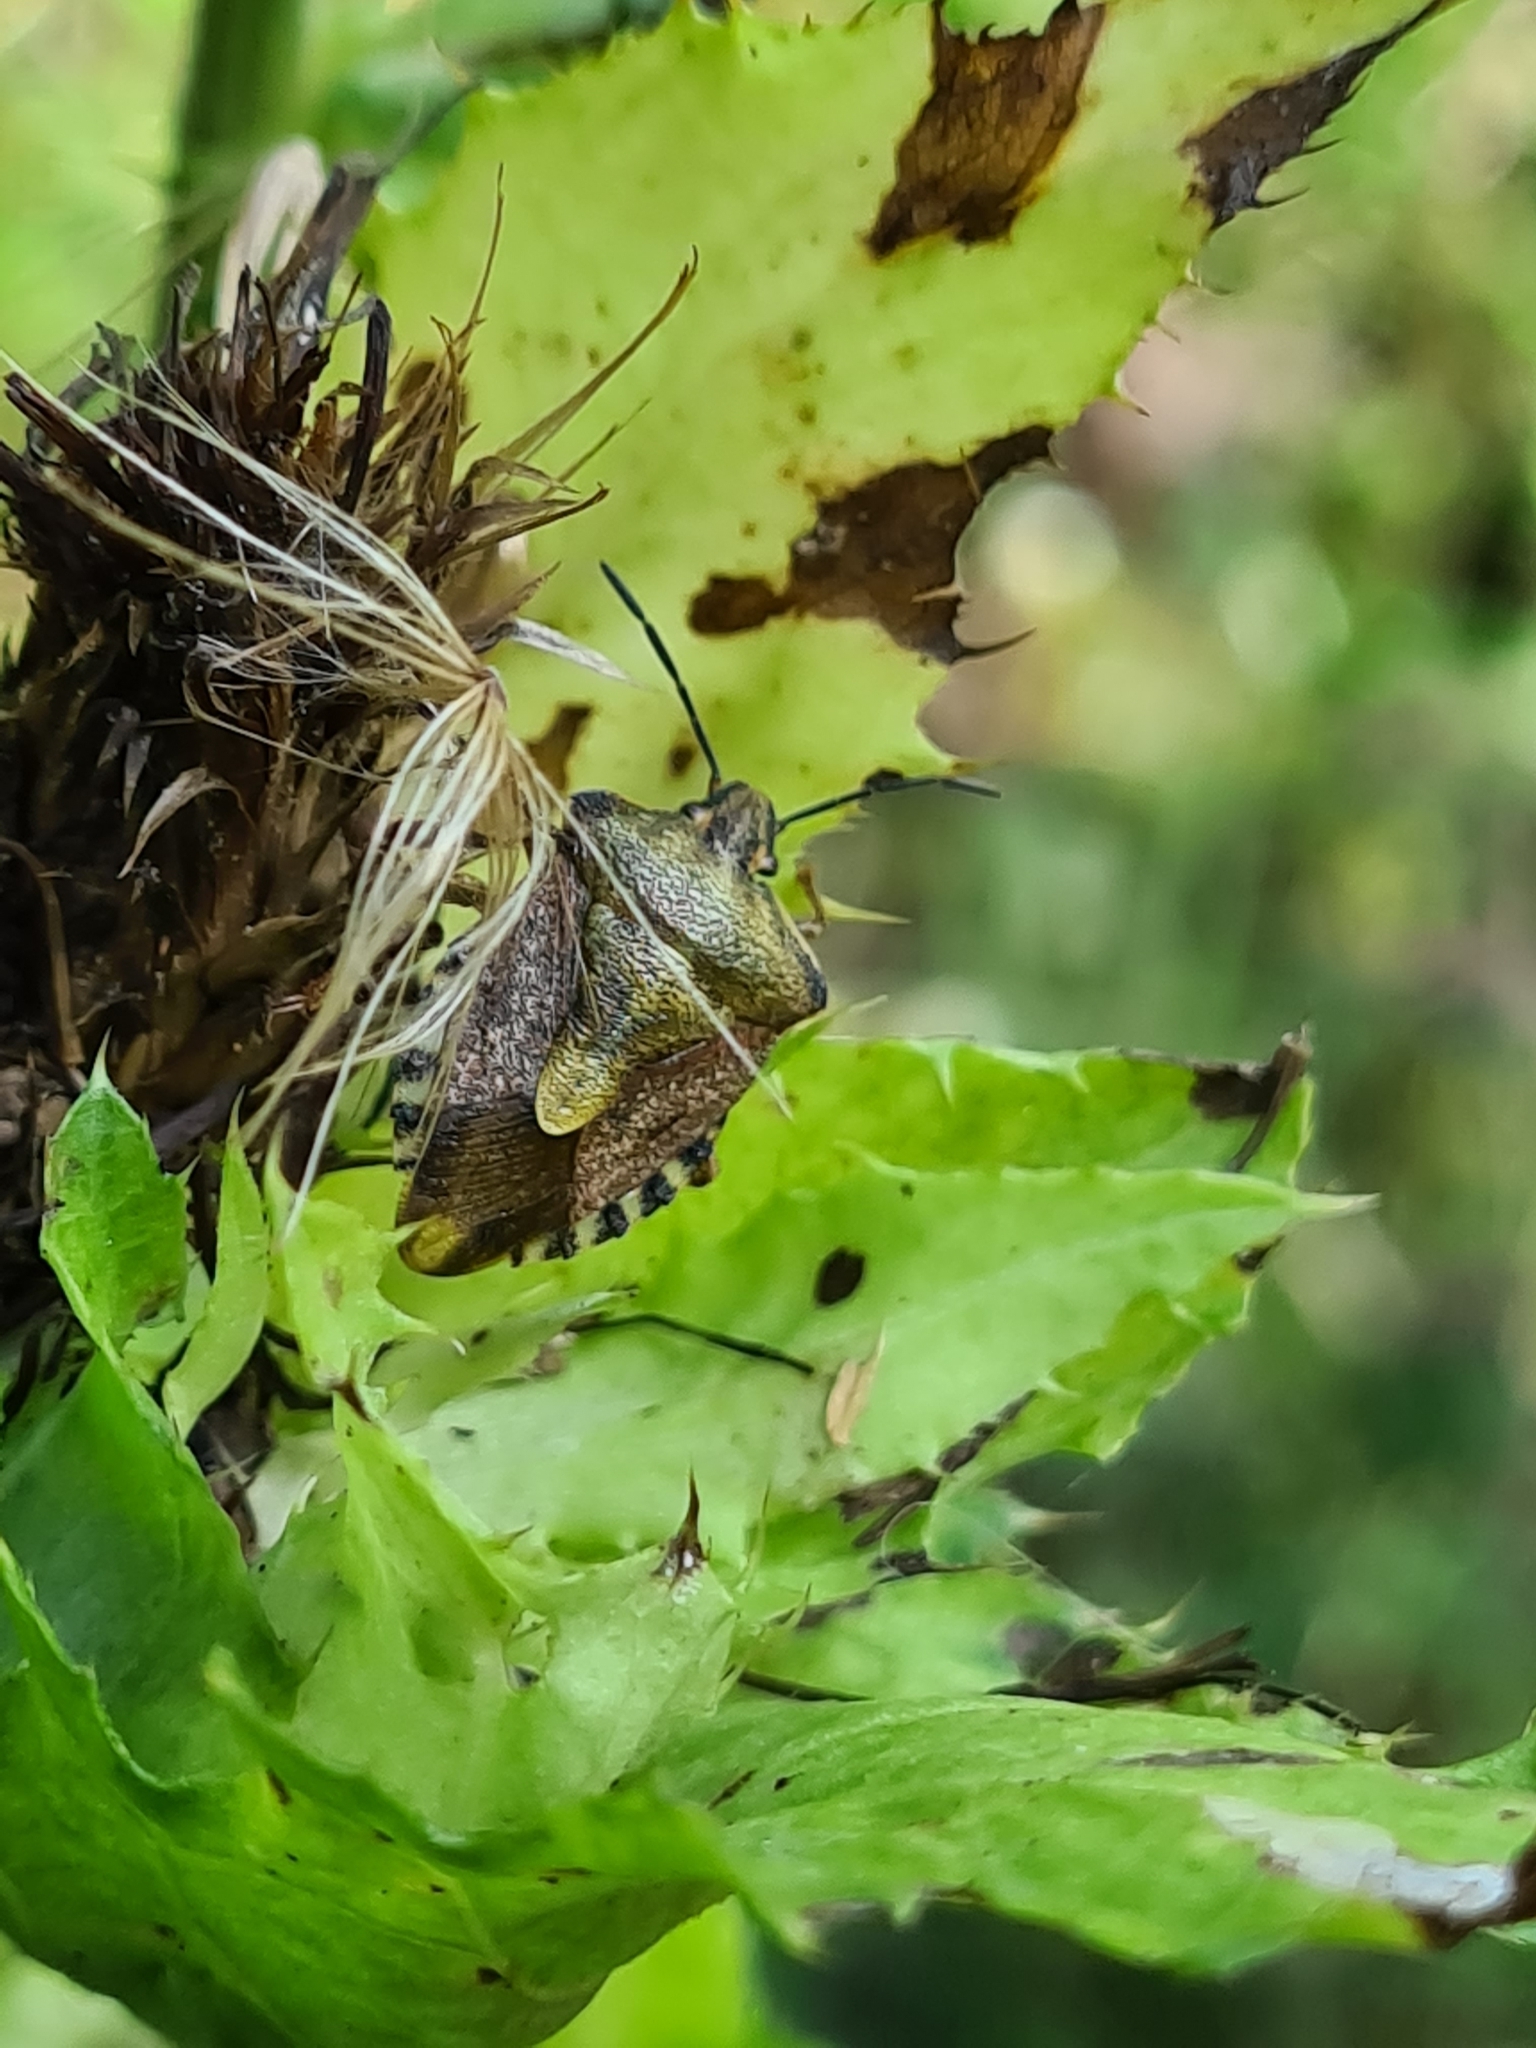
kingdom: Animalia
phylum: Arthropoda
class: Insecta
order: Hemiptera
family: Pentatomidae
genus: Carpocoris
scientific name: Carpocoris purpureipennis
